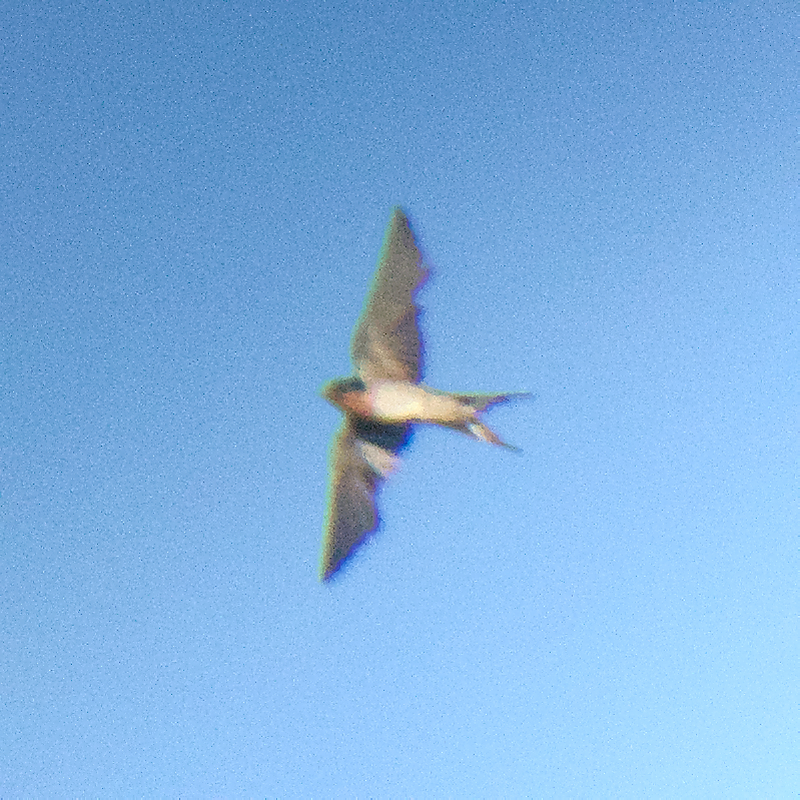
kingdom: Animalia
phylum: Chordata
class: Aves
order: Passeriformes
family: Hirundinidae
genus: Hirundo
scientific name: Hirundo neoxena
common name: Welcome swallow
